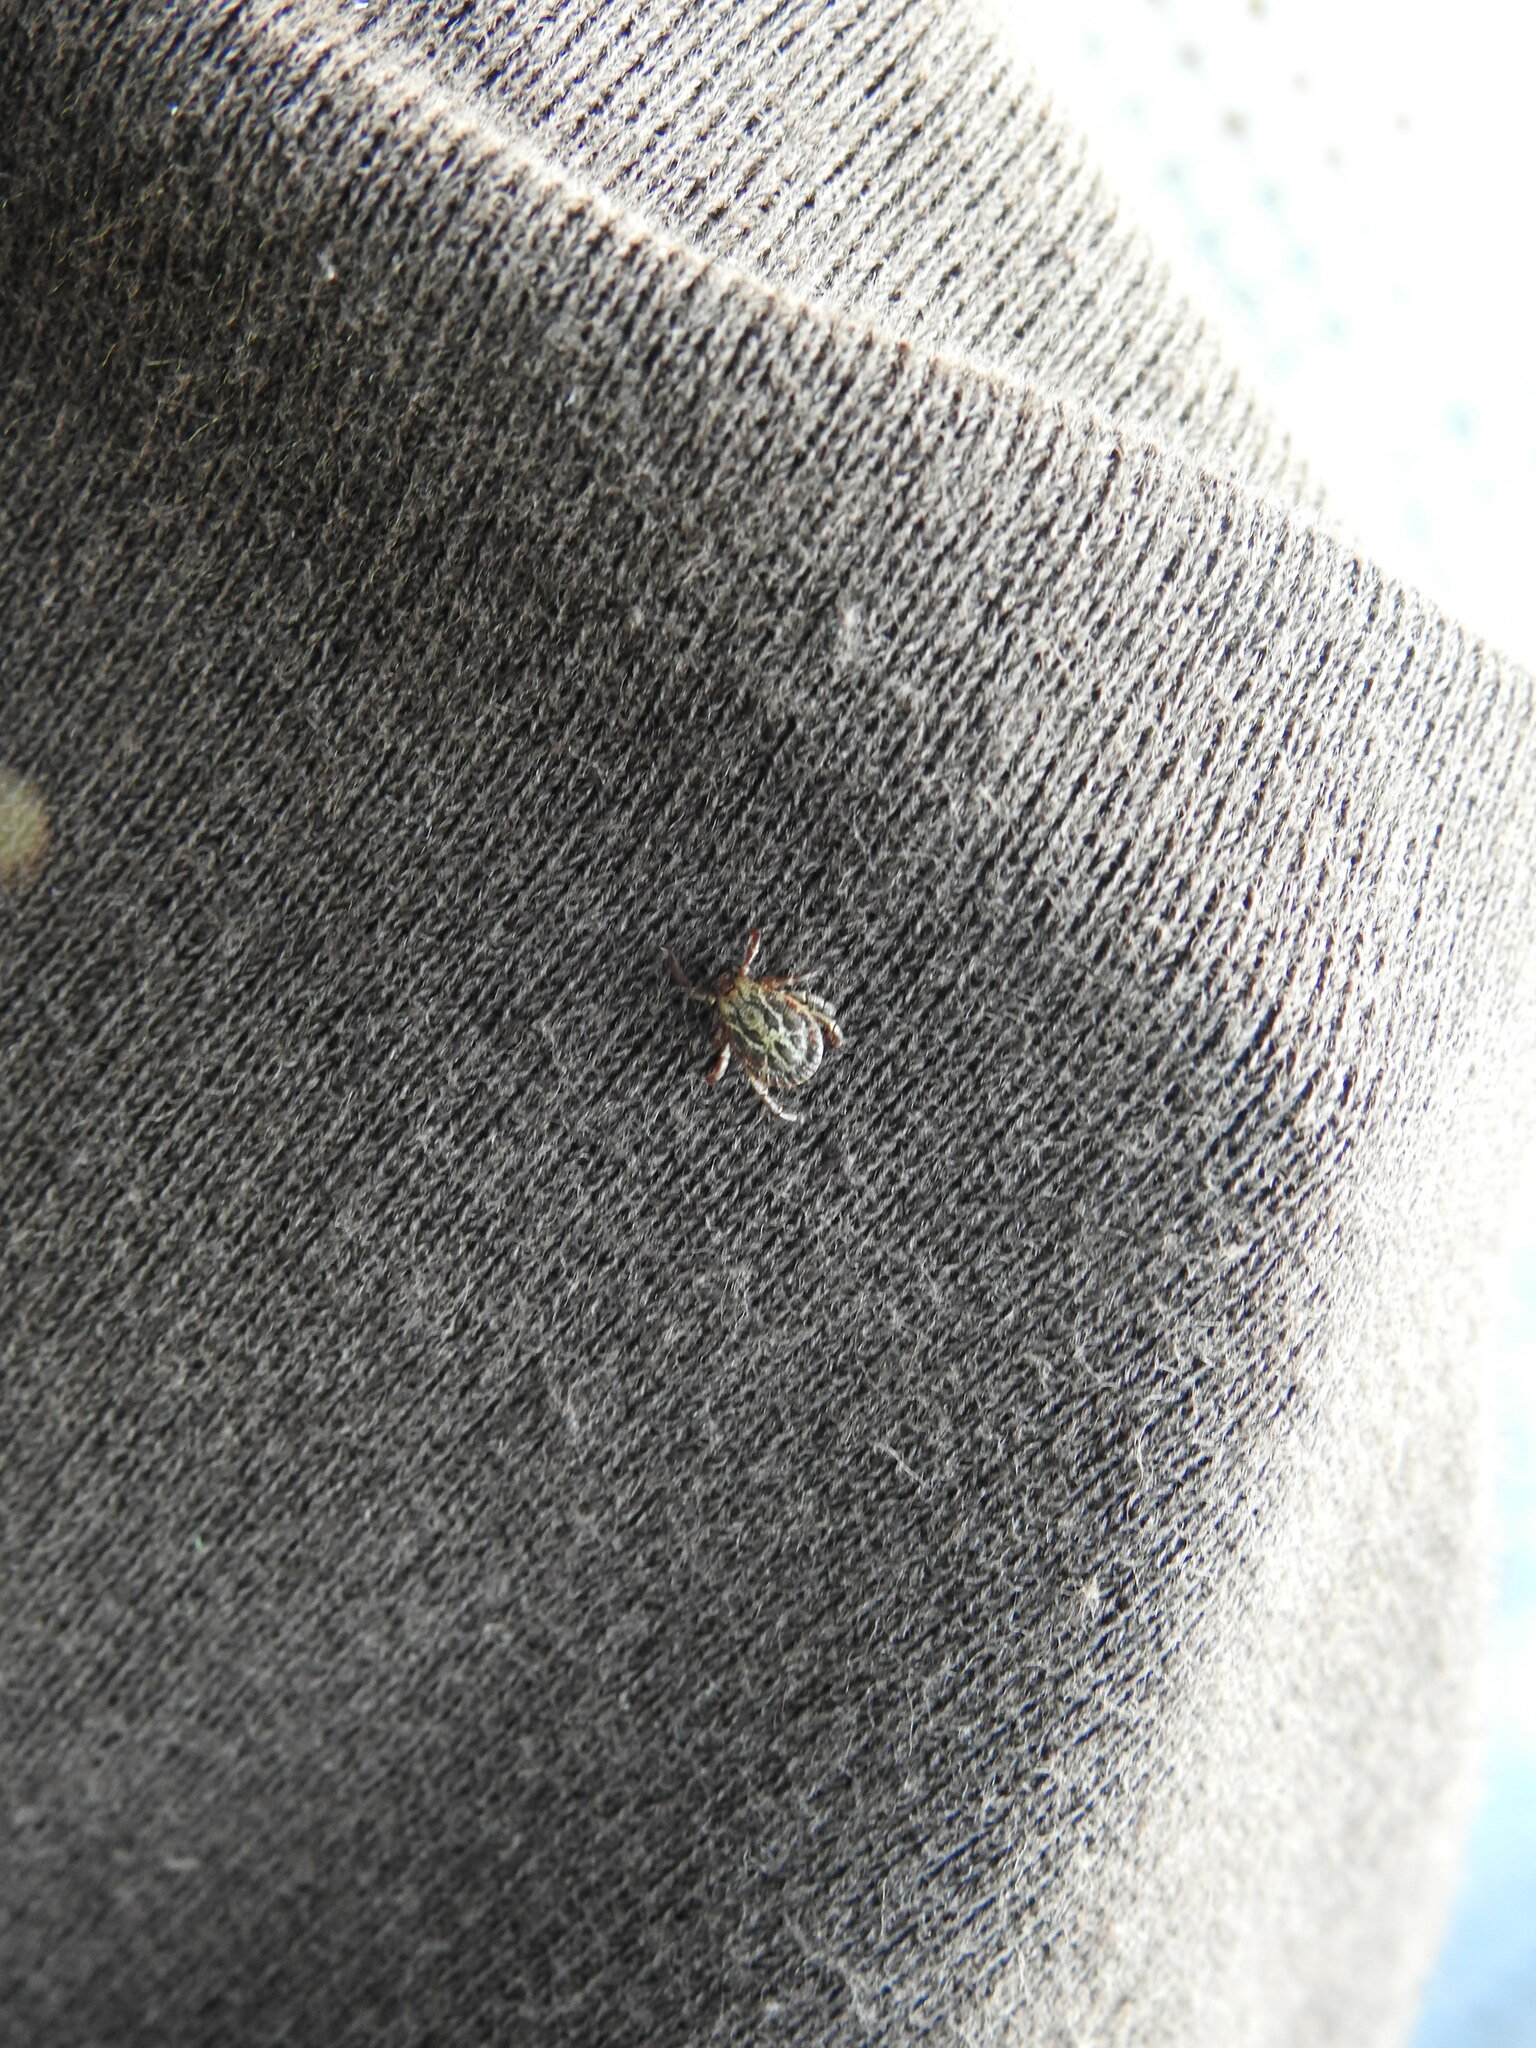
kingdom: Animalia
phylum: Arthropoda
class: Arachnida
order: Ixodida
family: Ixodidae
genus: Dermacentor
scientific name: Dermacentor marginatus
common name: Ornate sheep tick
